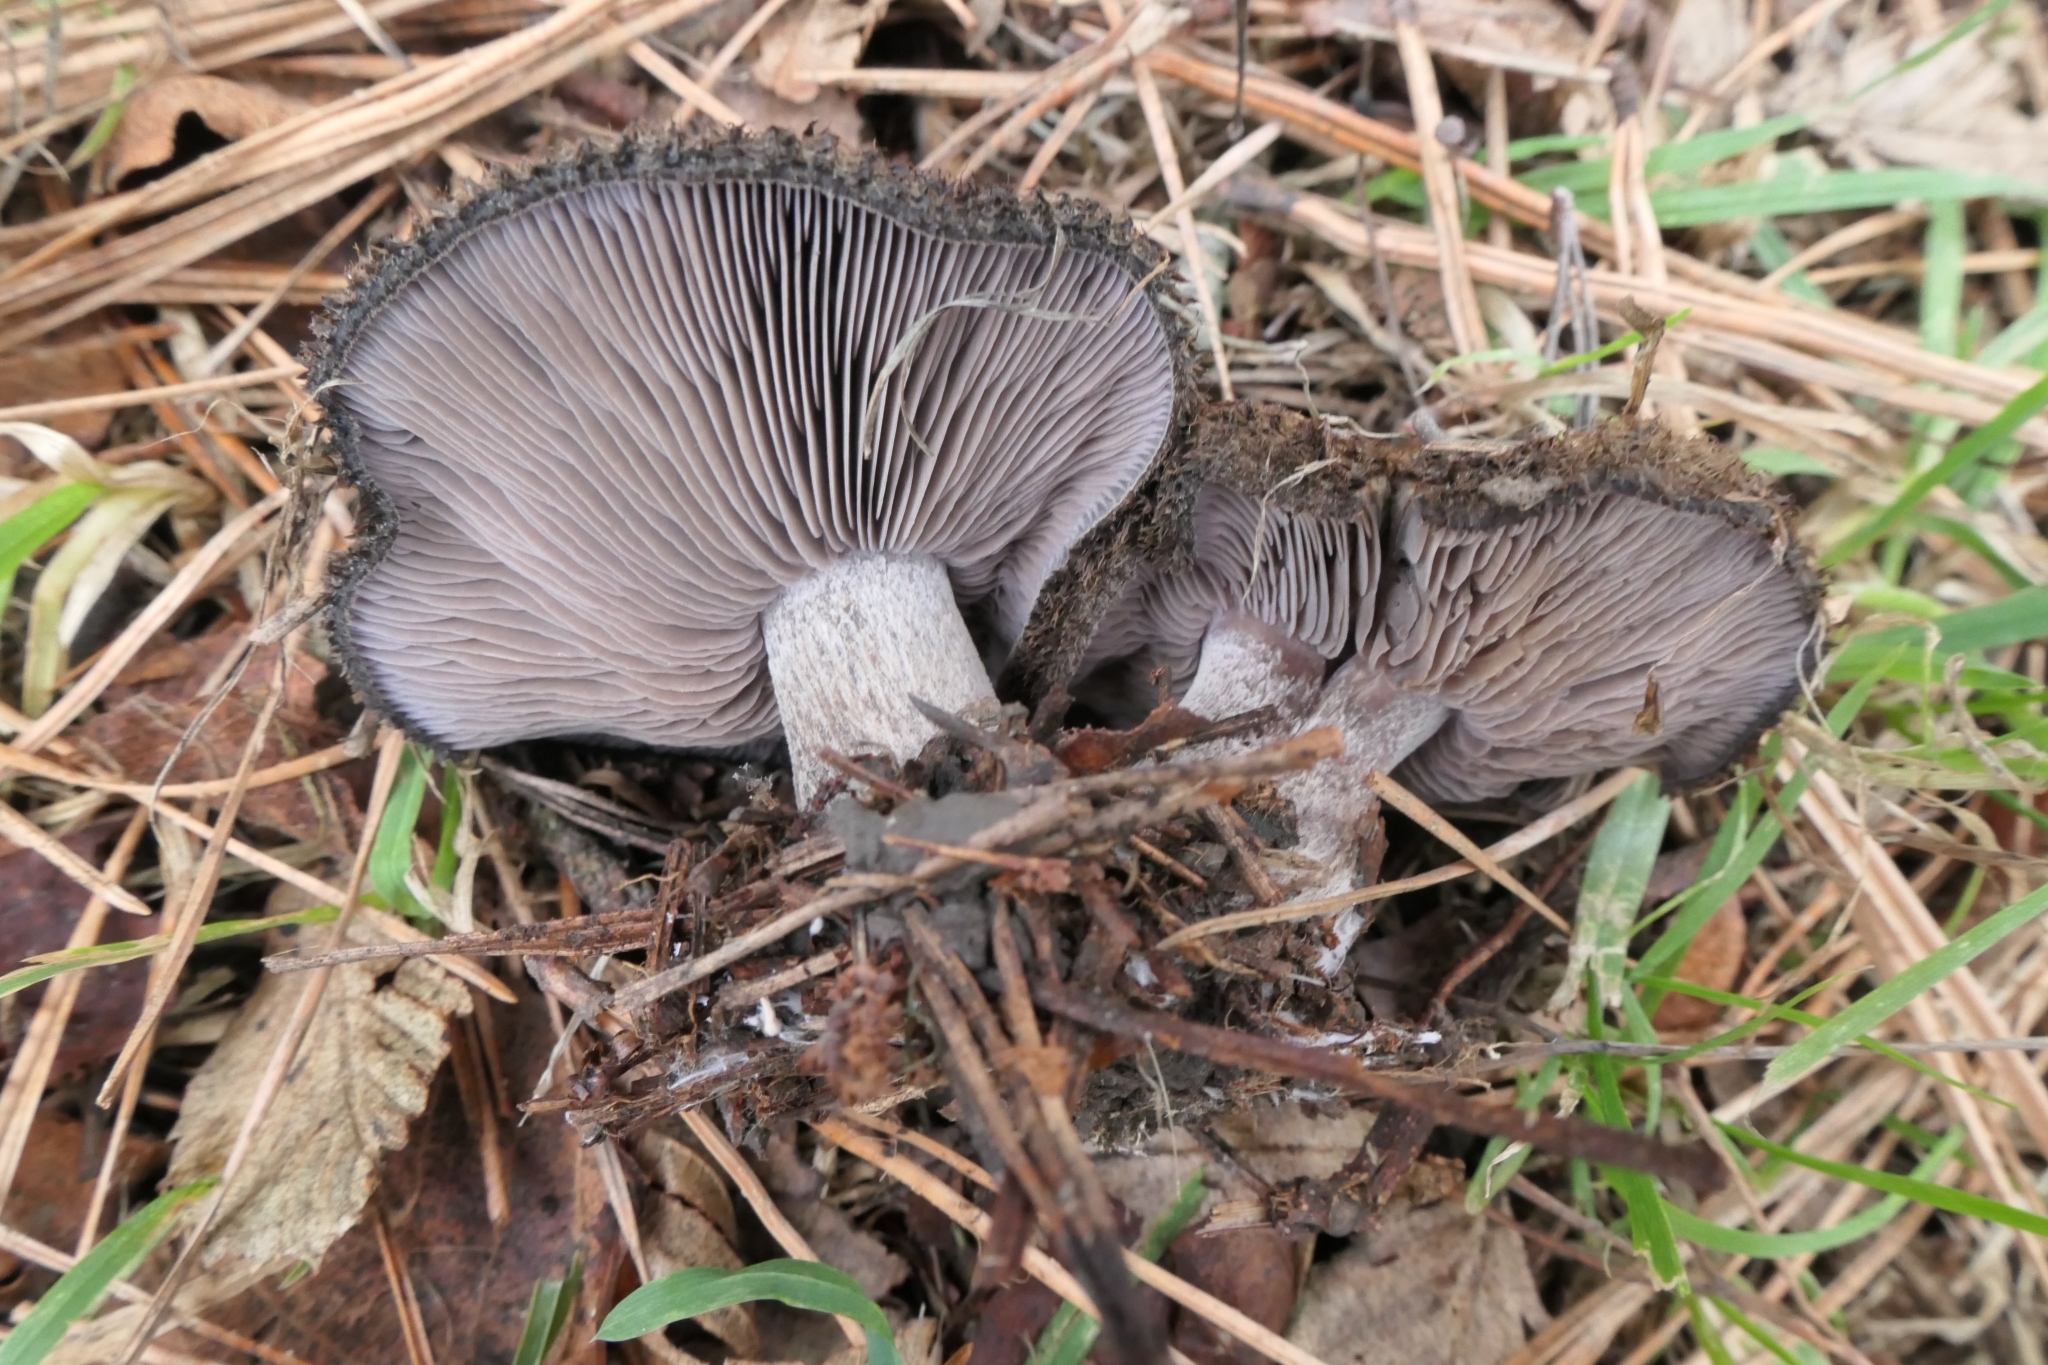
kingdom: Fungi
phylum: Basidiomycota
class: Agaricomycetes
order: Agaricales
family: Tricholomataceae
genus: Collybia
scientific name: Collybia
